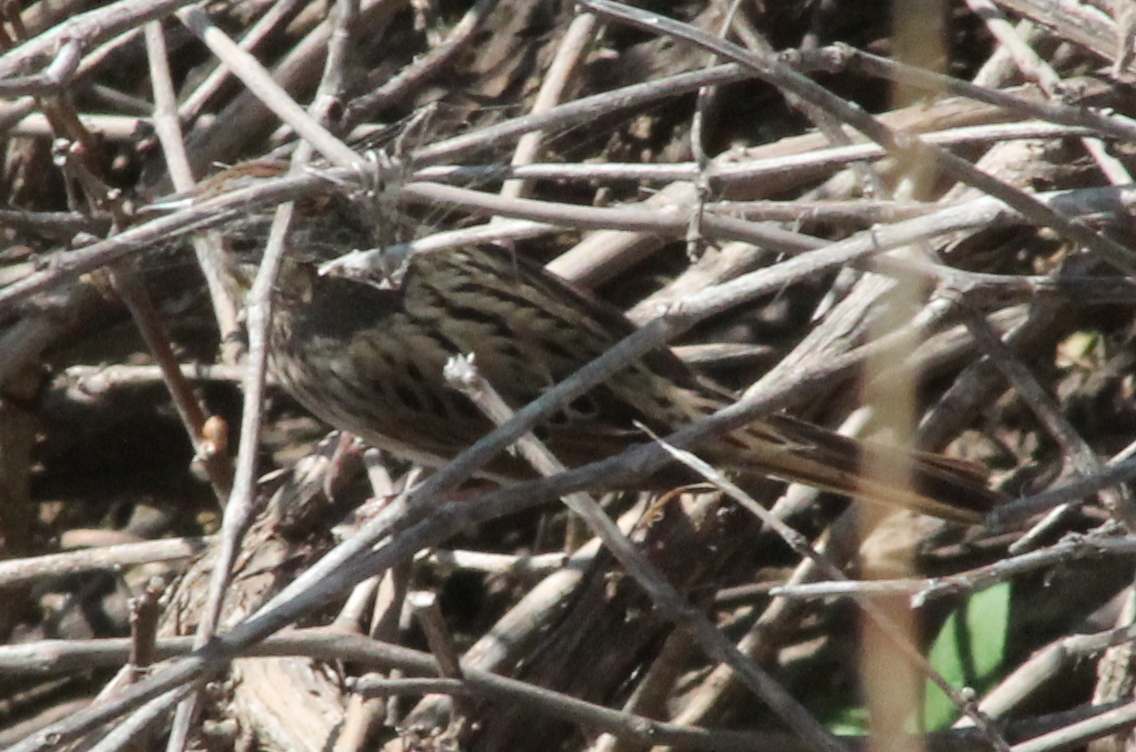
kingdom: Animalia
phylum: Chordata
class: Aves
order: Passeriformes
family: Passerellidae
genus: Melospiza
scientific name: Melospiza lincolnii
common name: Lincoln's sparrow
